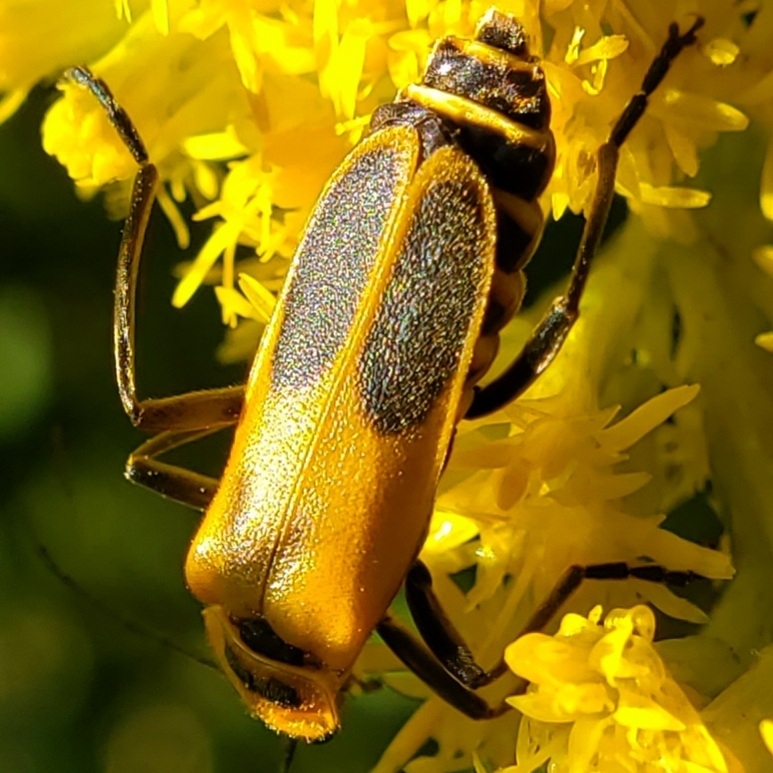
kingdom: Animalia
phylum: Arthropoda
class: Insecta
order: Coleoptera
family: Cantharidae
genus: Chauliognathus
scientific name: Chauliognathus pensylvanicus
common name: Goldenrod soldier beetle
